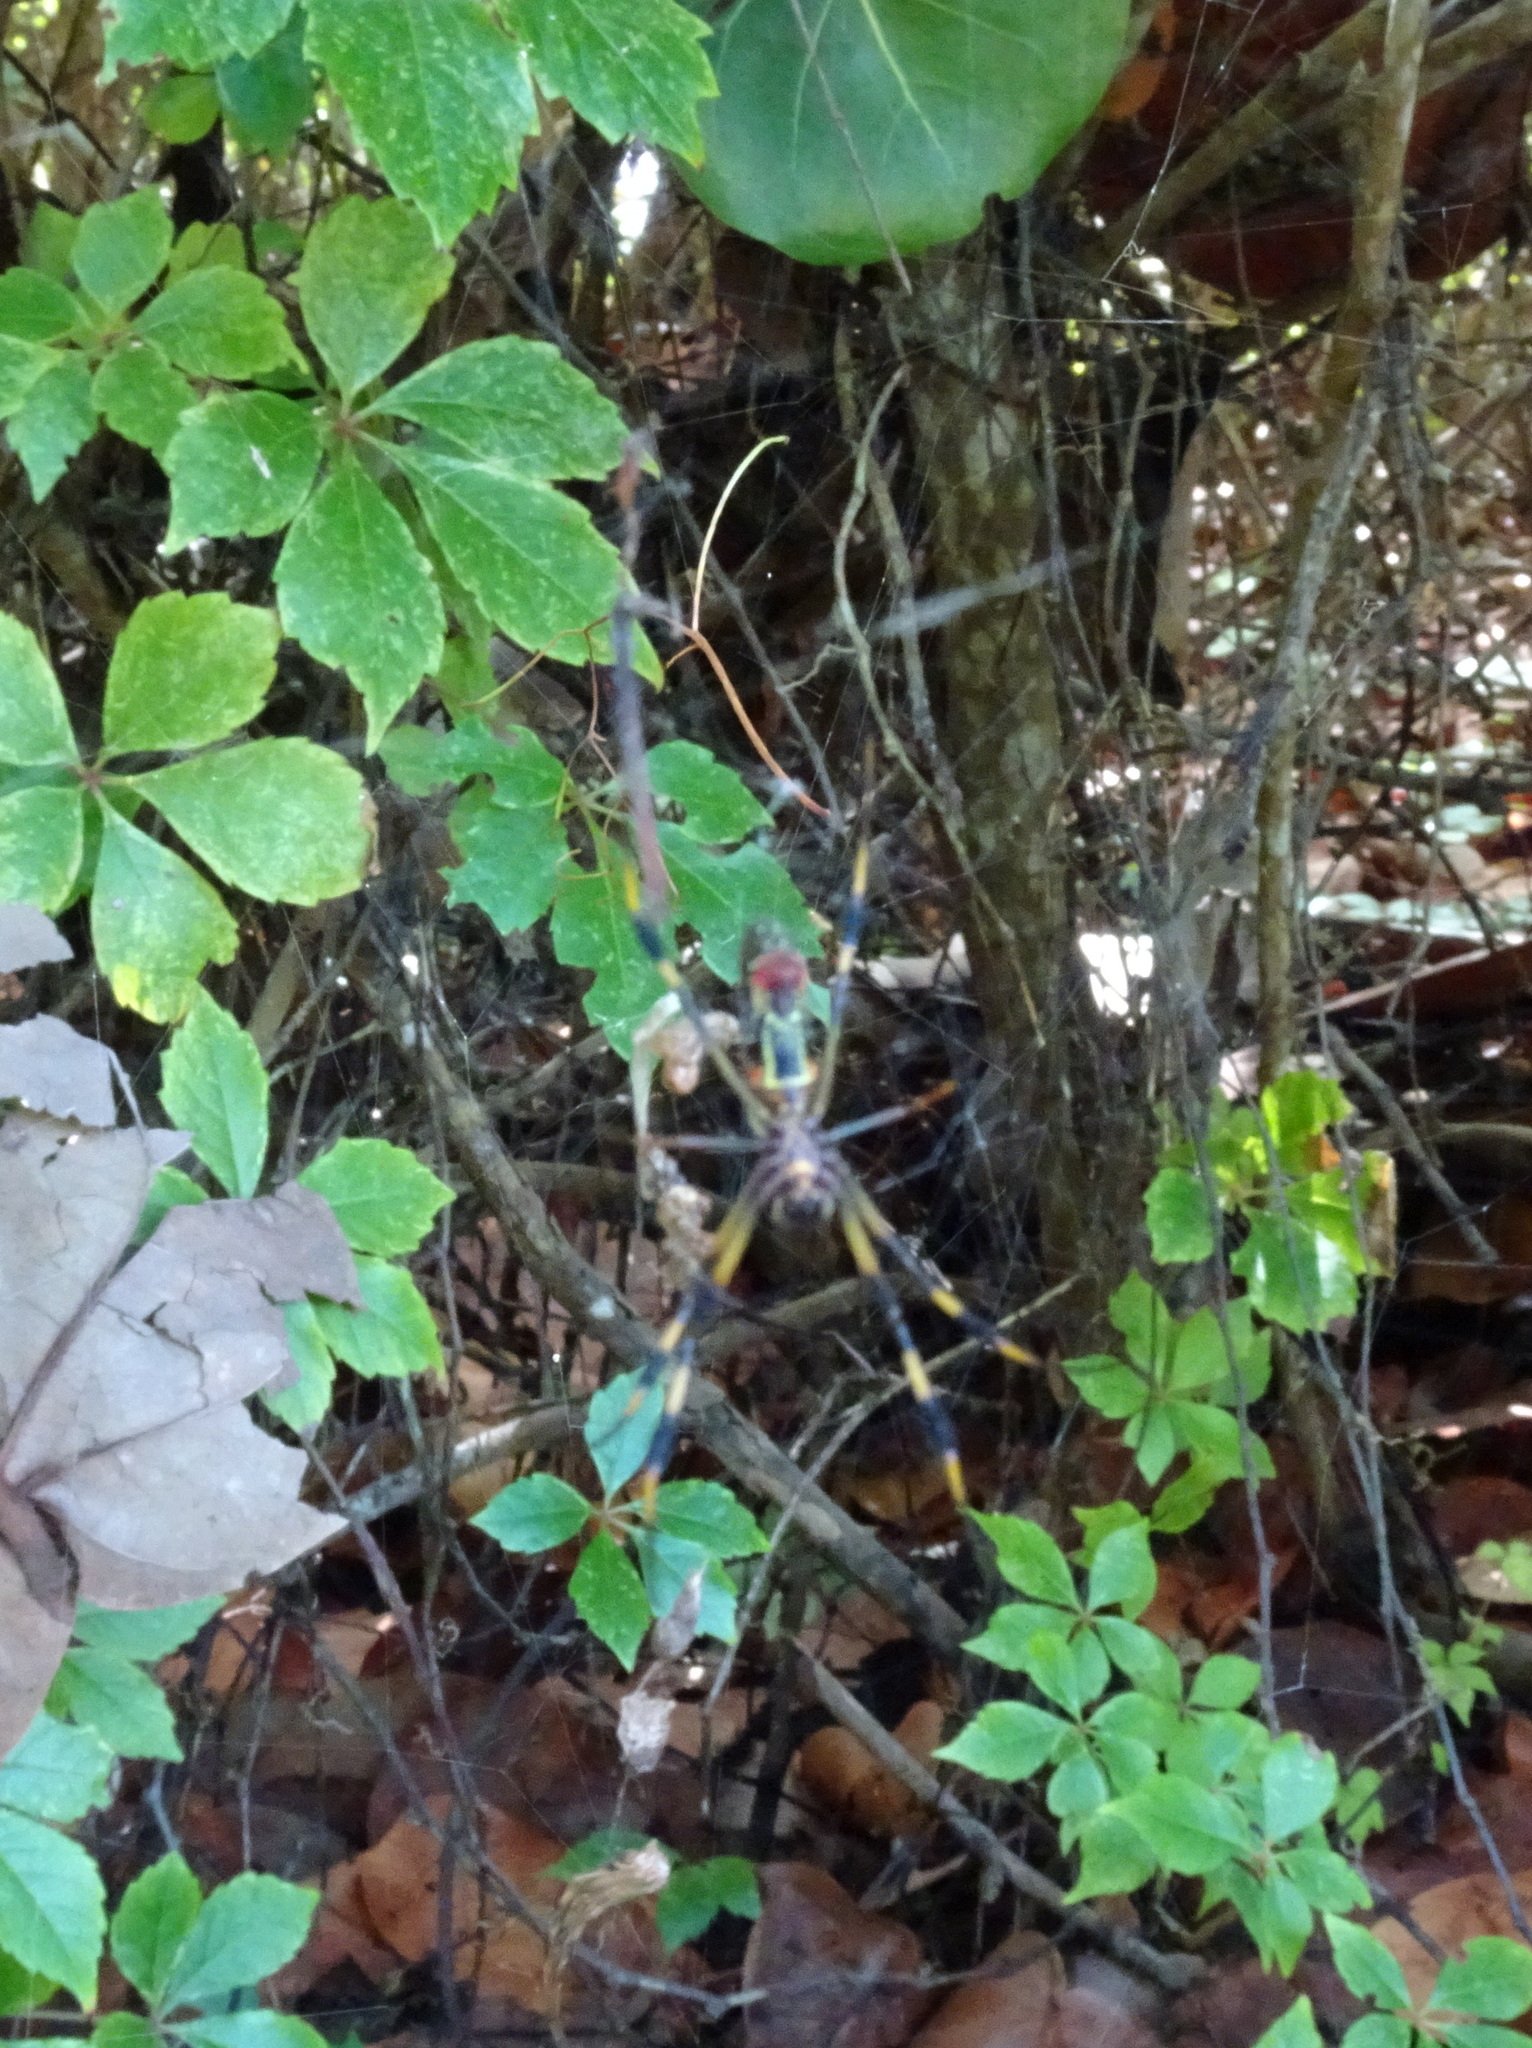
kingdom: Animalia
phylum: Arthropoda
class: Arachnida
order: Araneae
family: Araneidae
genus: Trichonephila
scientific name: Trichonephila clavipes
